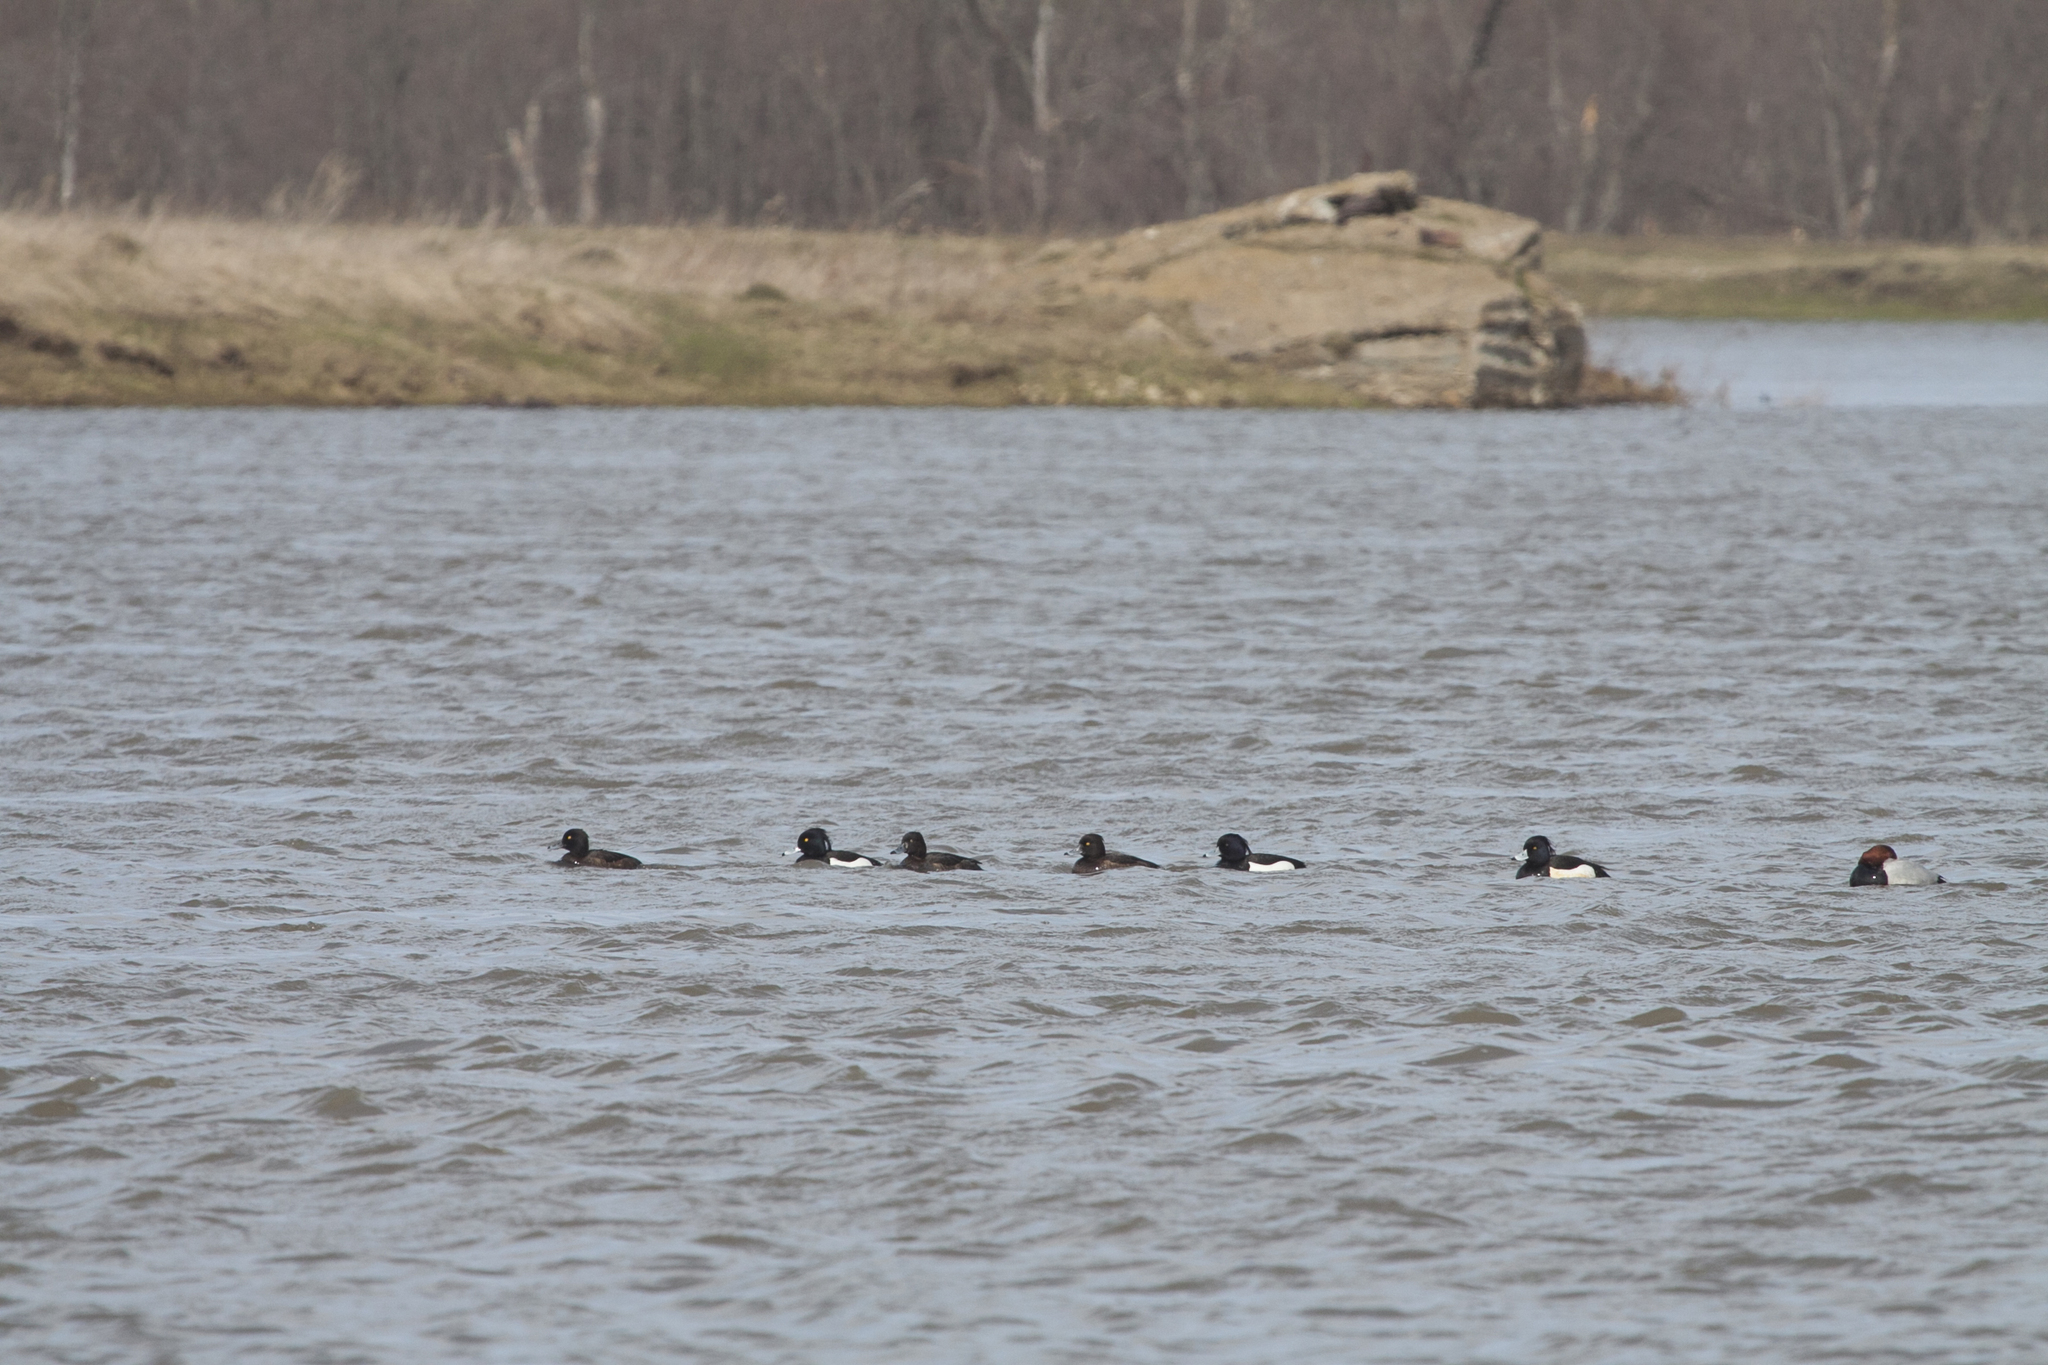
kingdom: Animalia
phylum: Chordata
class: Aves
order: Anseriformes
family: Anatidae
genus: Aythya
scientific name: Aythya fuligula
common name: Tufted duck
